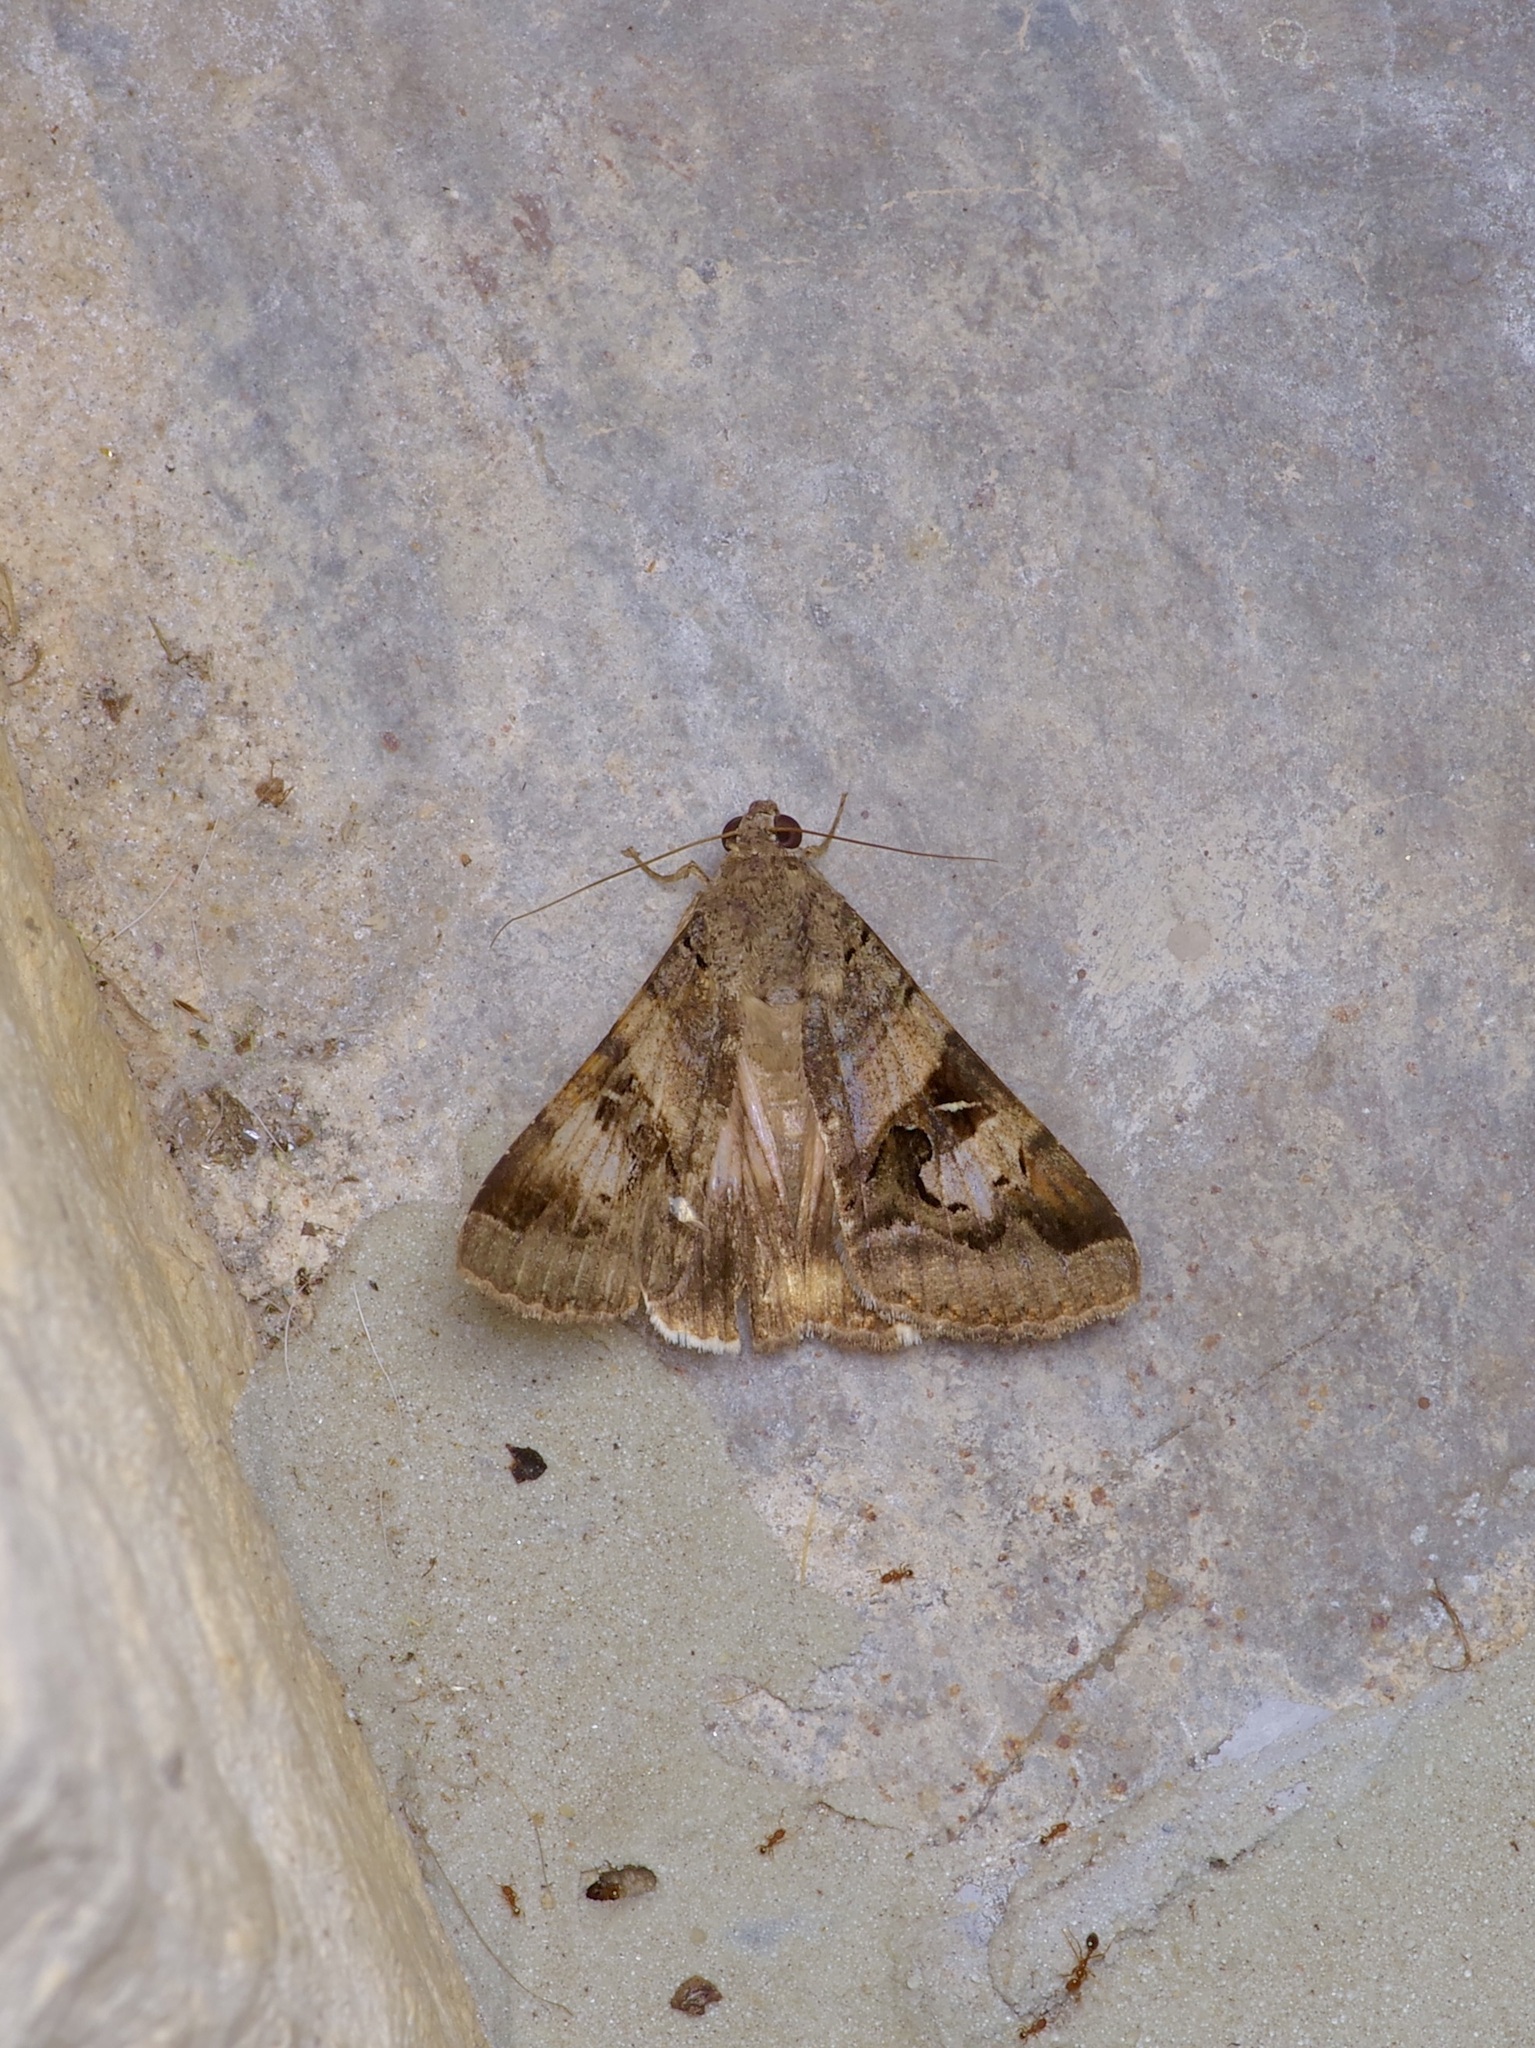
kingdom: Animalia
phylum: Arthropoda
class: Insecta
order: Lepidoptera
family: Erebidae
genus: Melipotis
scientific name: Melipotis indomita
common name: Moth
